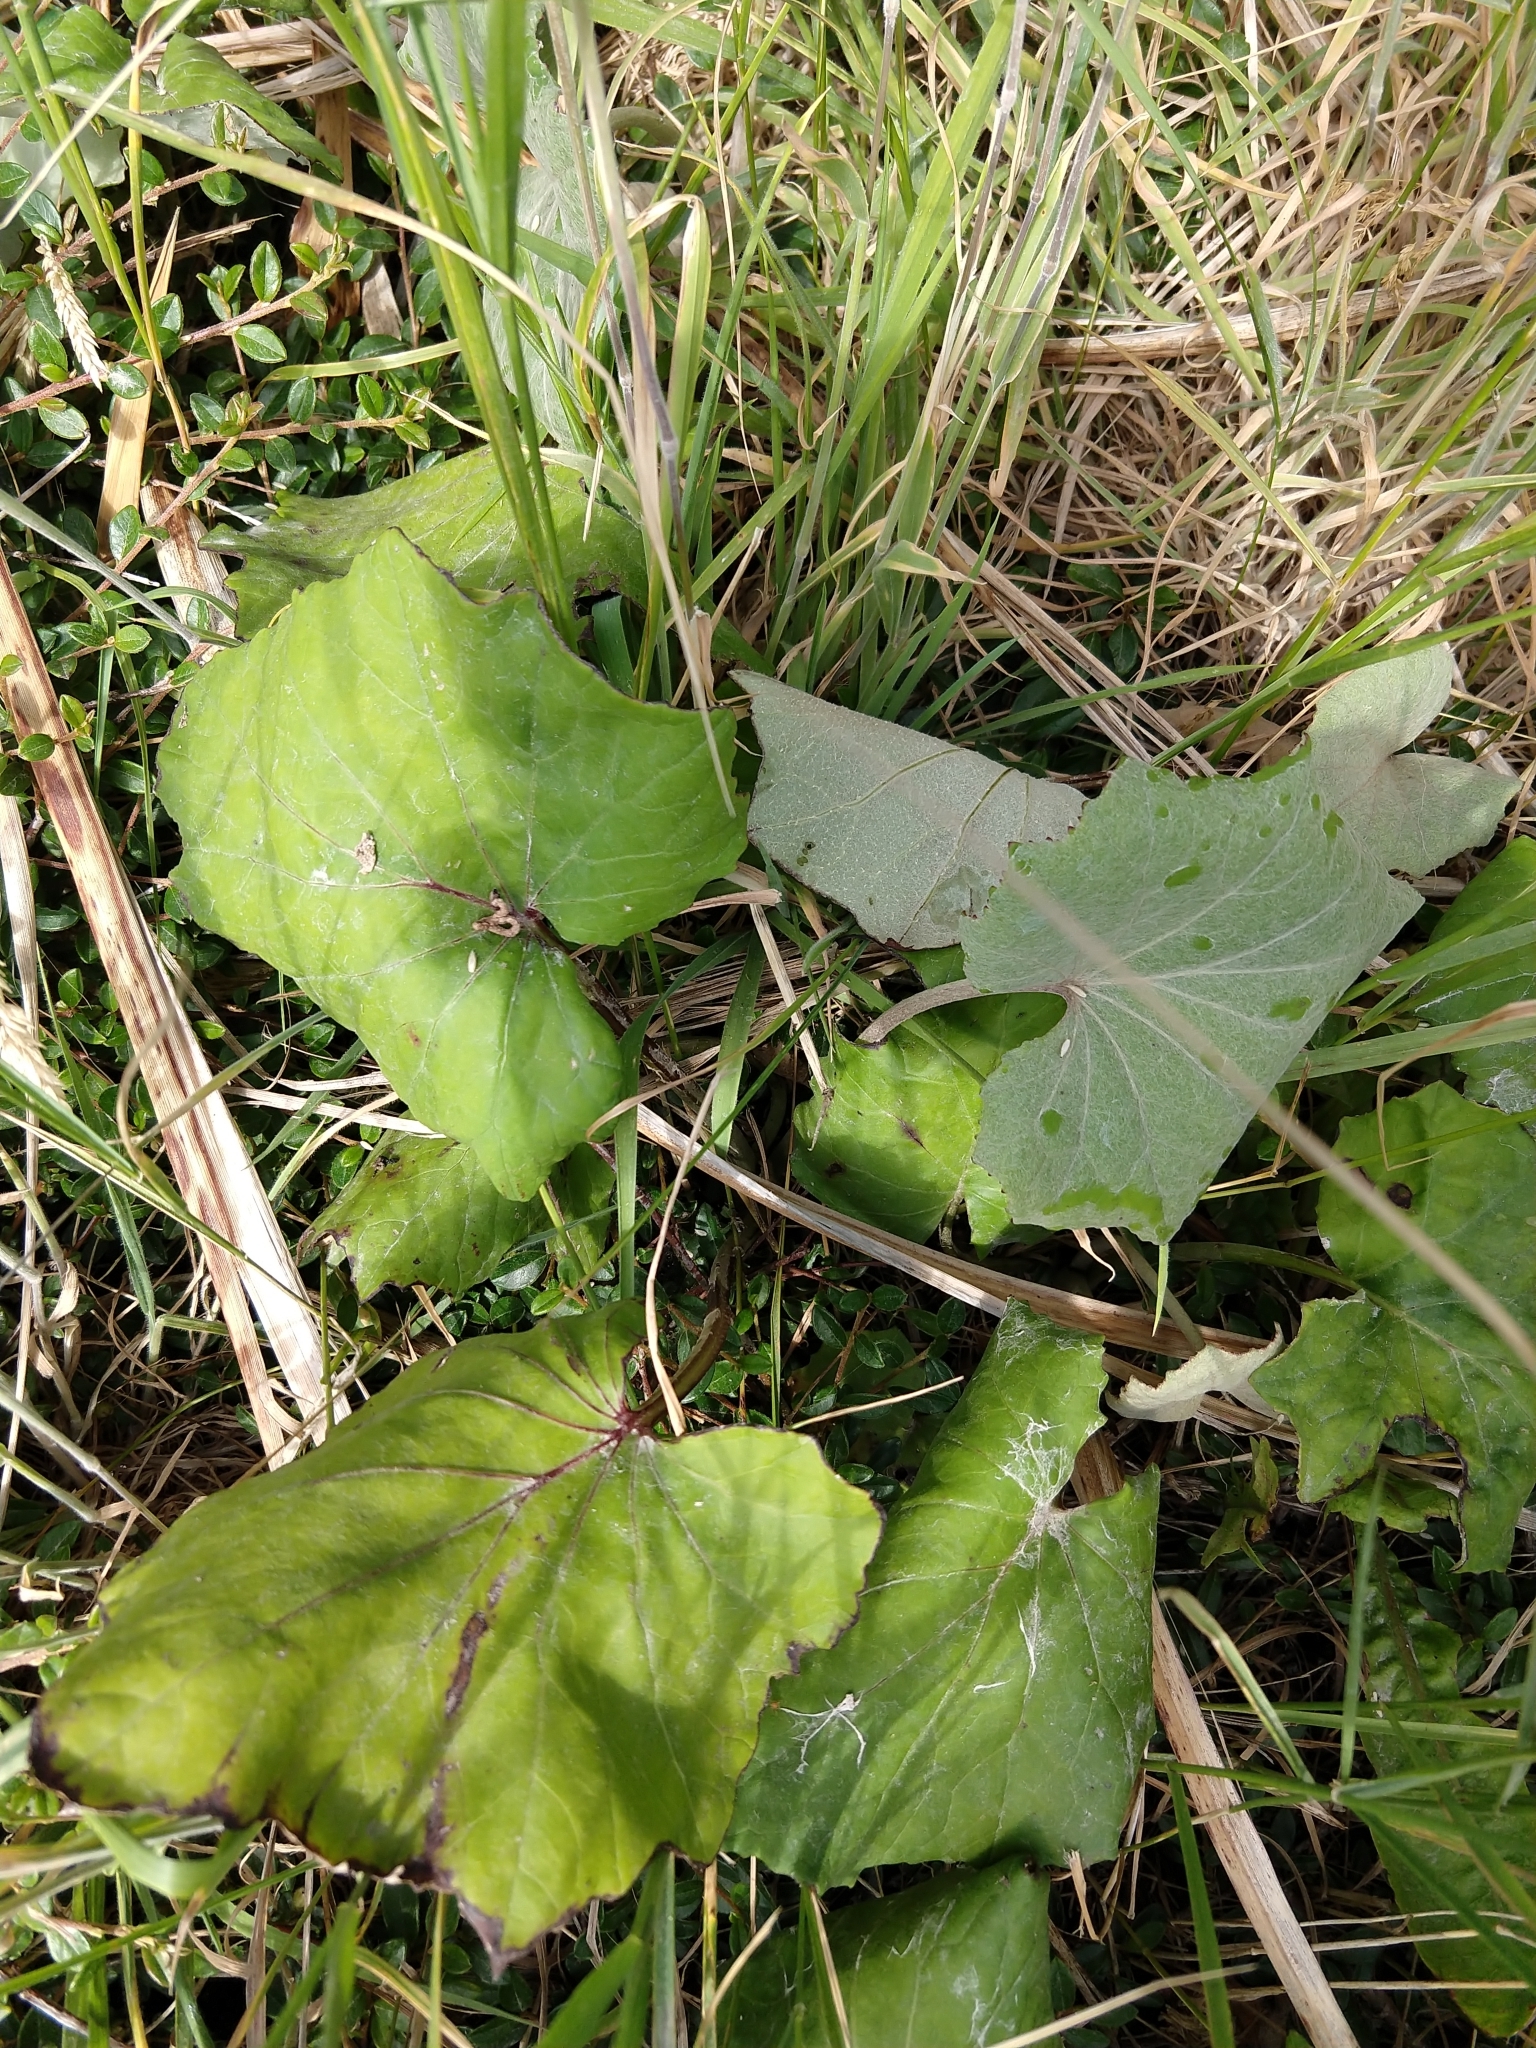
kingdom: Plantae
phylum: Tracheophyta
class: Magnoliopsida
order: Asterales
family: Asteraceae
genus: Tussilago
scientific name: Tussilago farfara
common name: Coltsfoot
